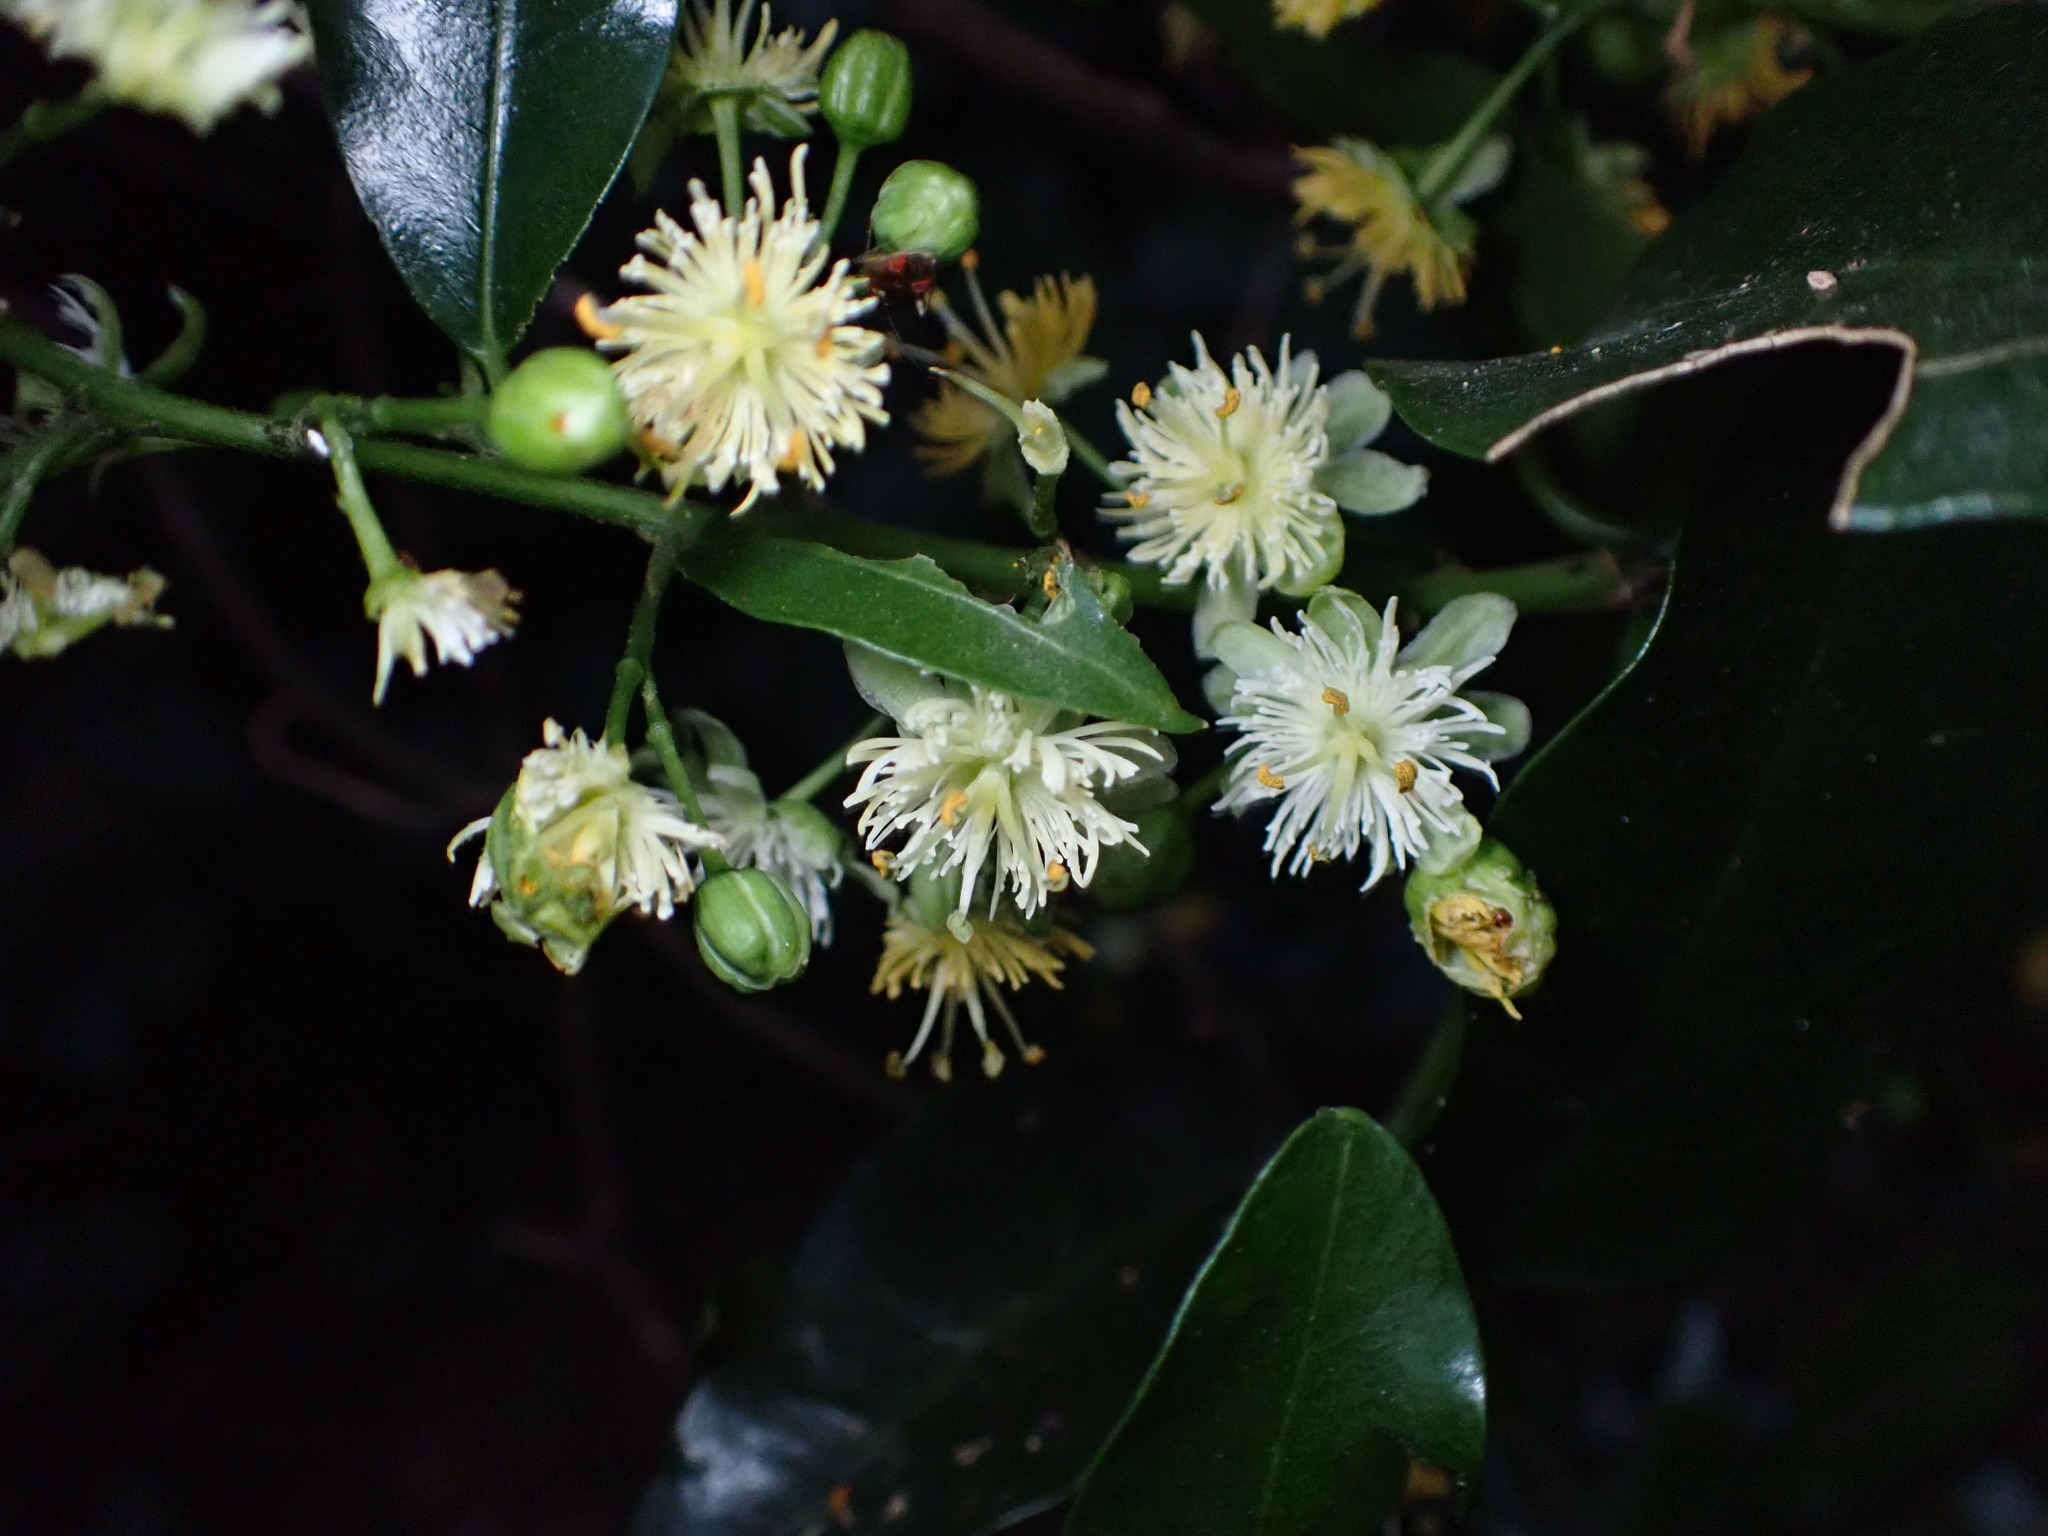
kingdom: Plantae
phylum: Tracheophyta
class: Magnoliopsida
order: Malpighiales
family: Passifloraceae
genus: Passiflora
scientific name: Passiflora tetrandra
